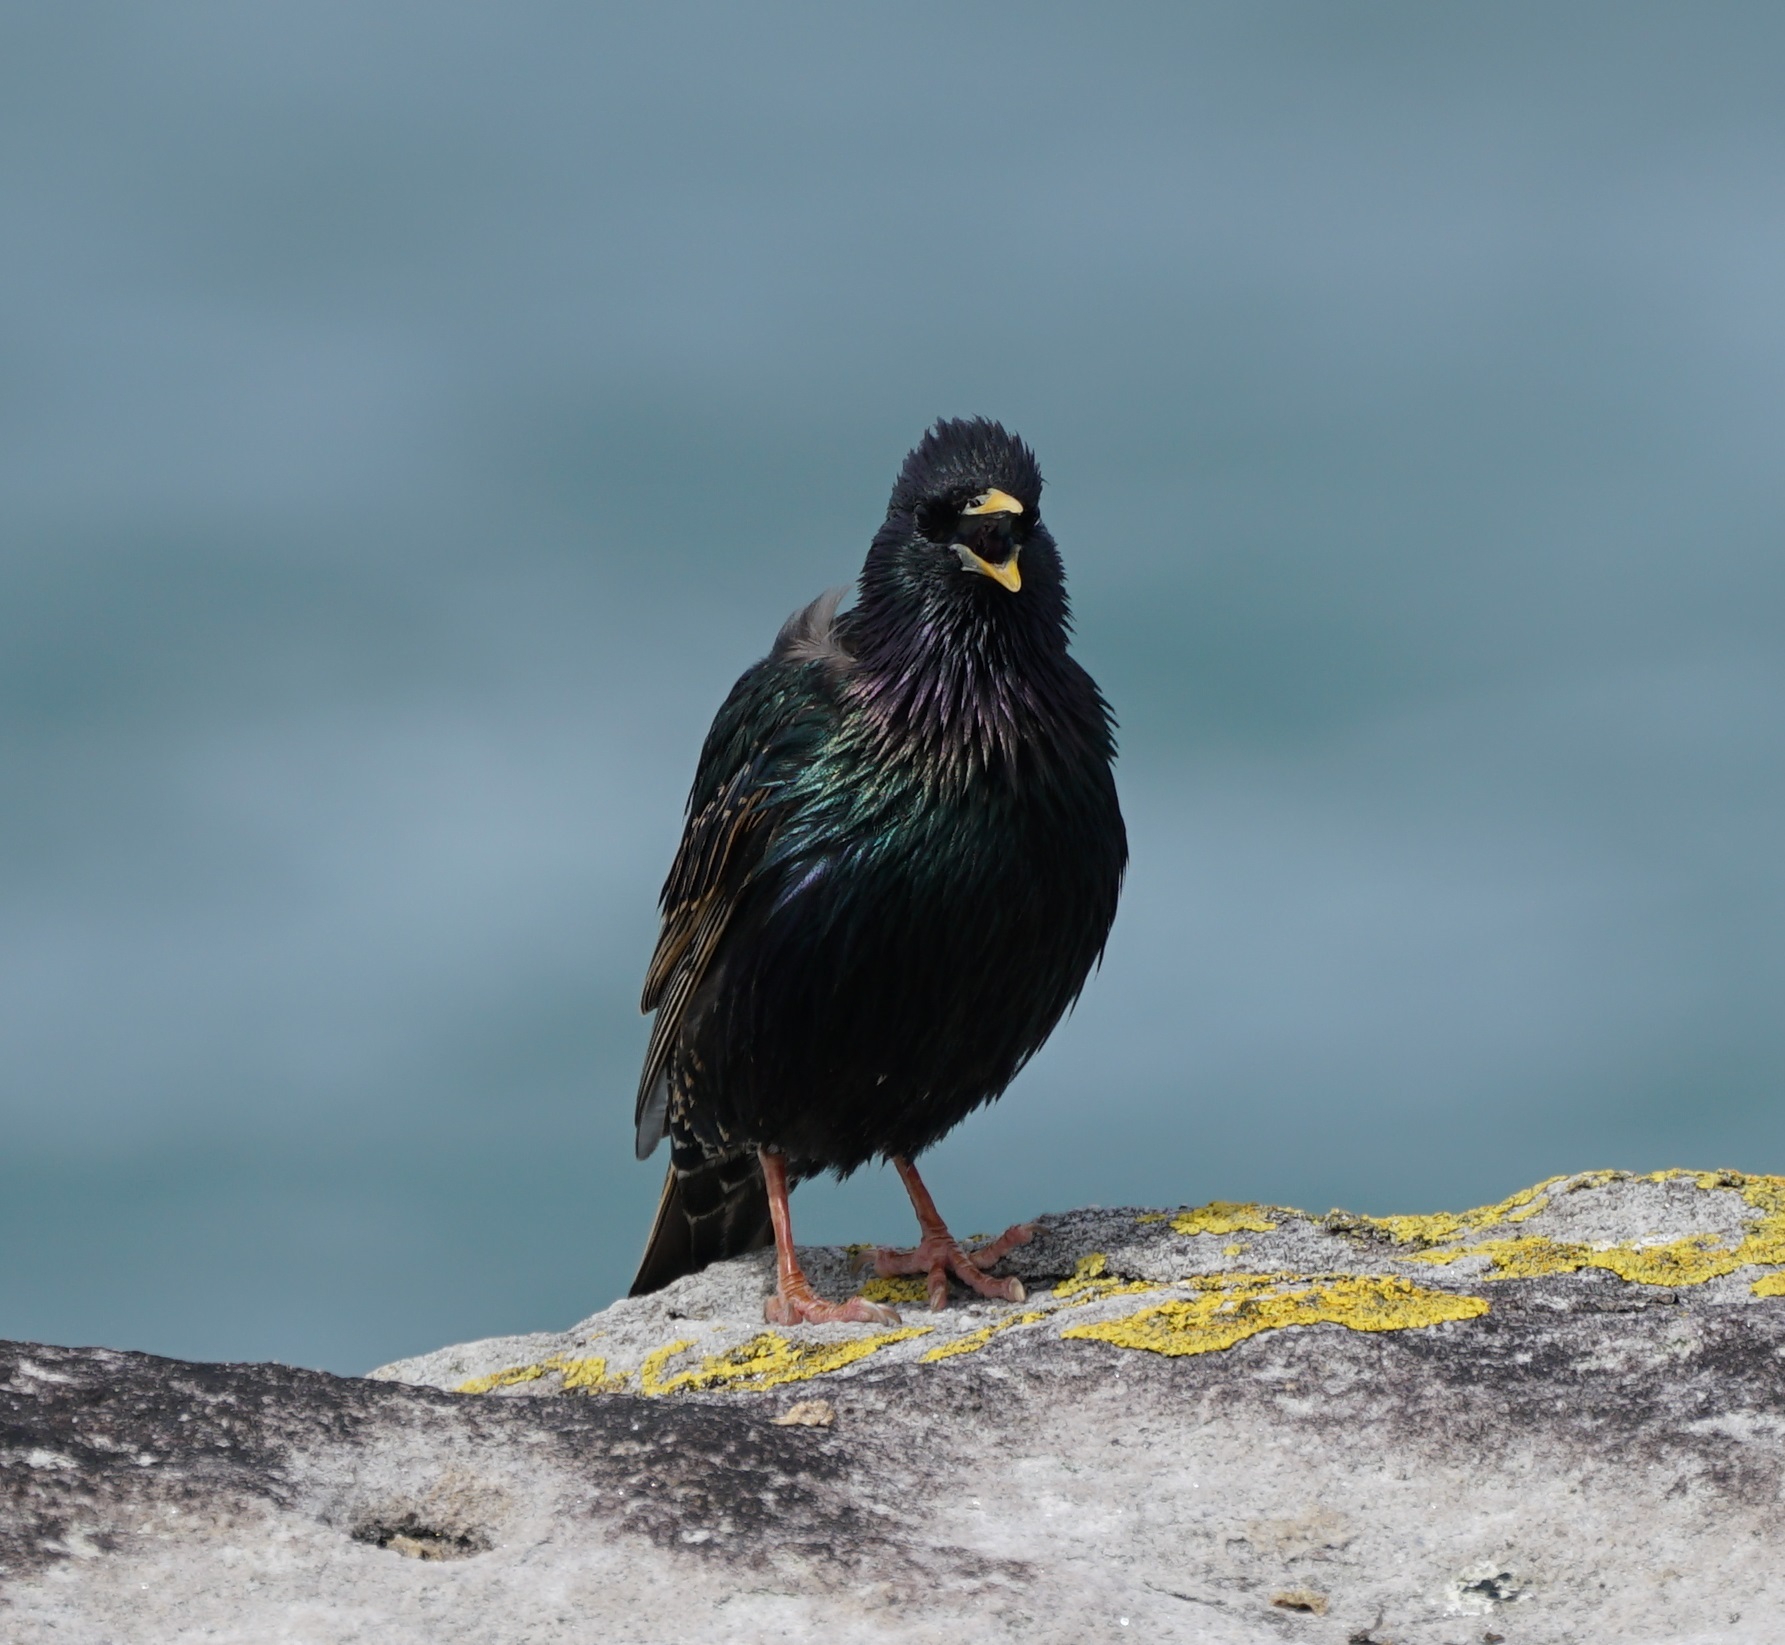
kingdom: Animalia
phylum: Chordata
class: Aves
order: Passeriformes
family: Sturnidae
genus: Sturnus
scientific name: Sturnus vulgaris
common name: Common starling
